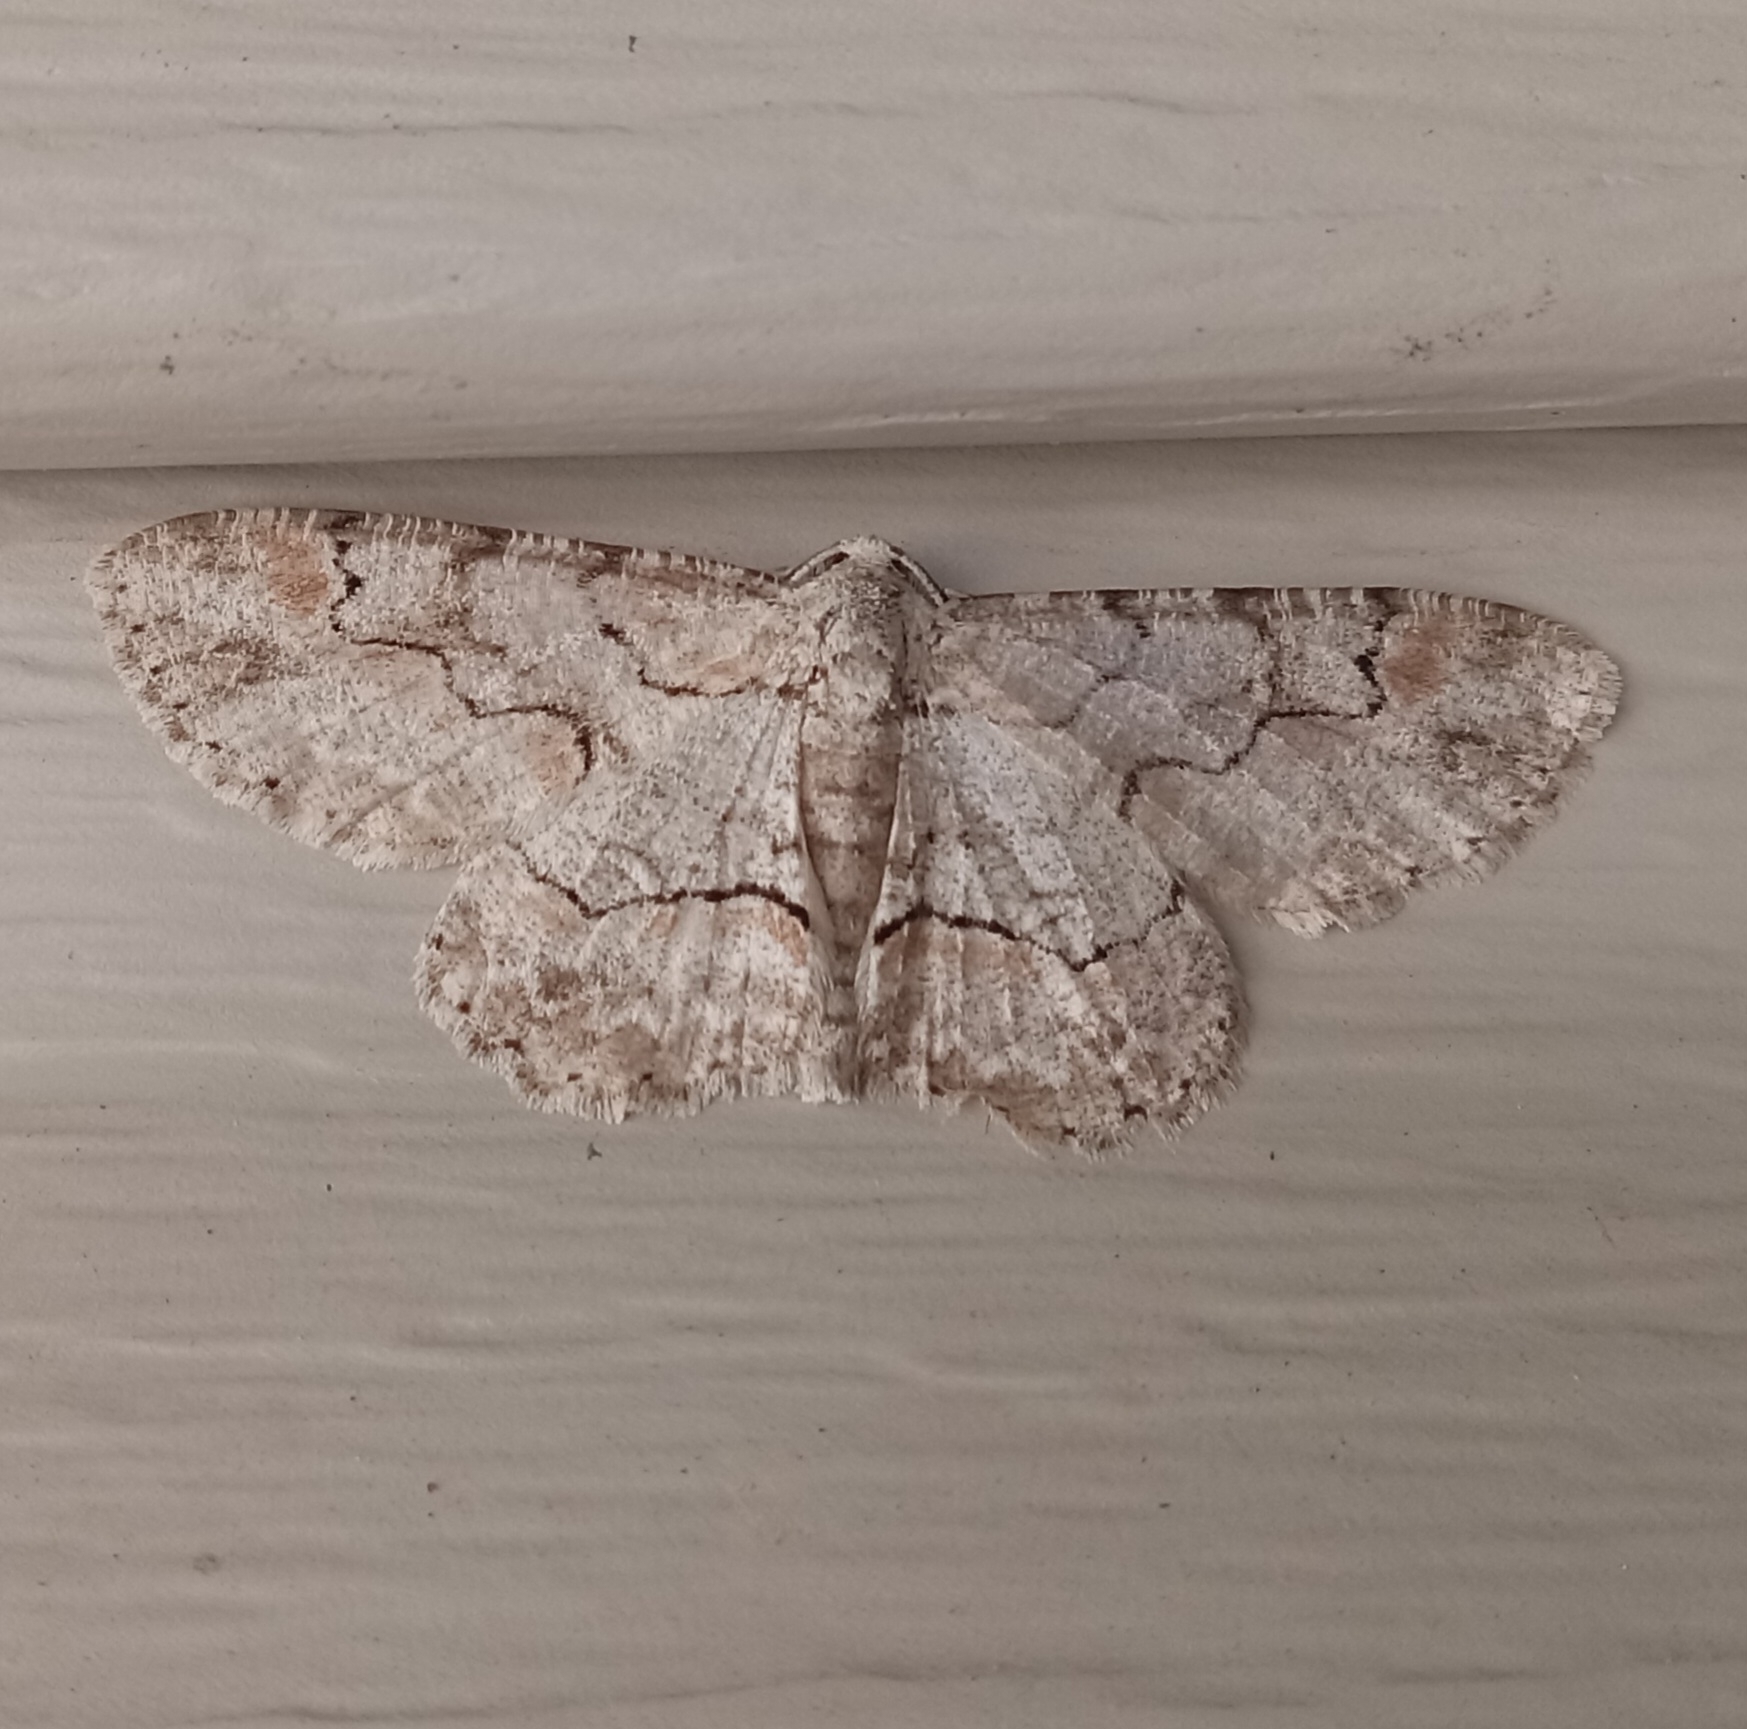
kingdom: Animalia
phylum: Arthropoda
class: Insecta
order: Lepidoptera
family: Geometridae
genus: Iridopsis
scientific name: Iridopsis defectaria
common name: Brown-shaded gray
